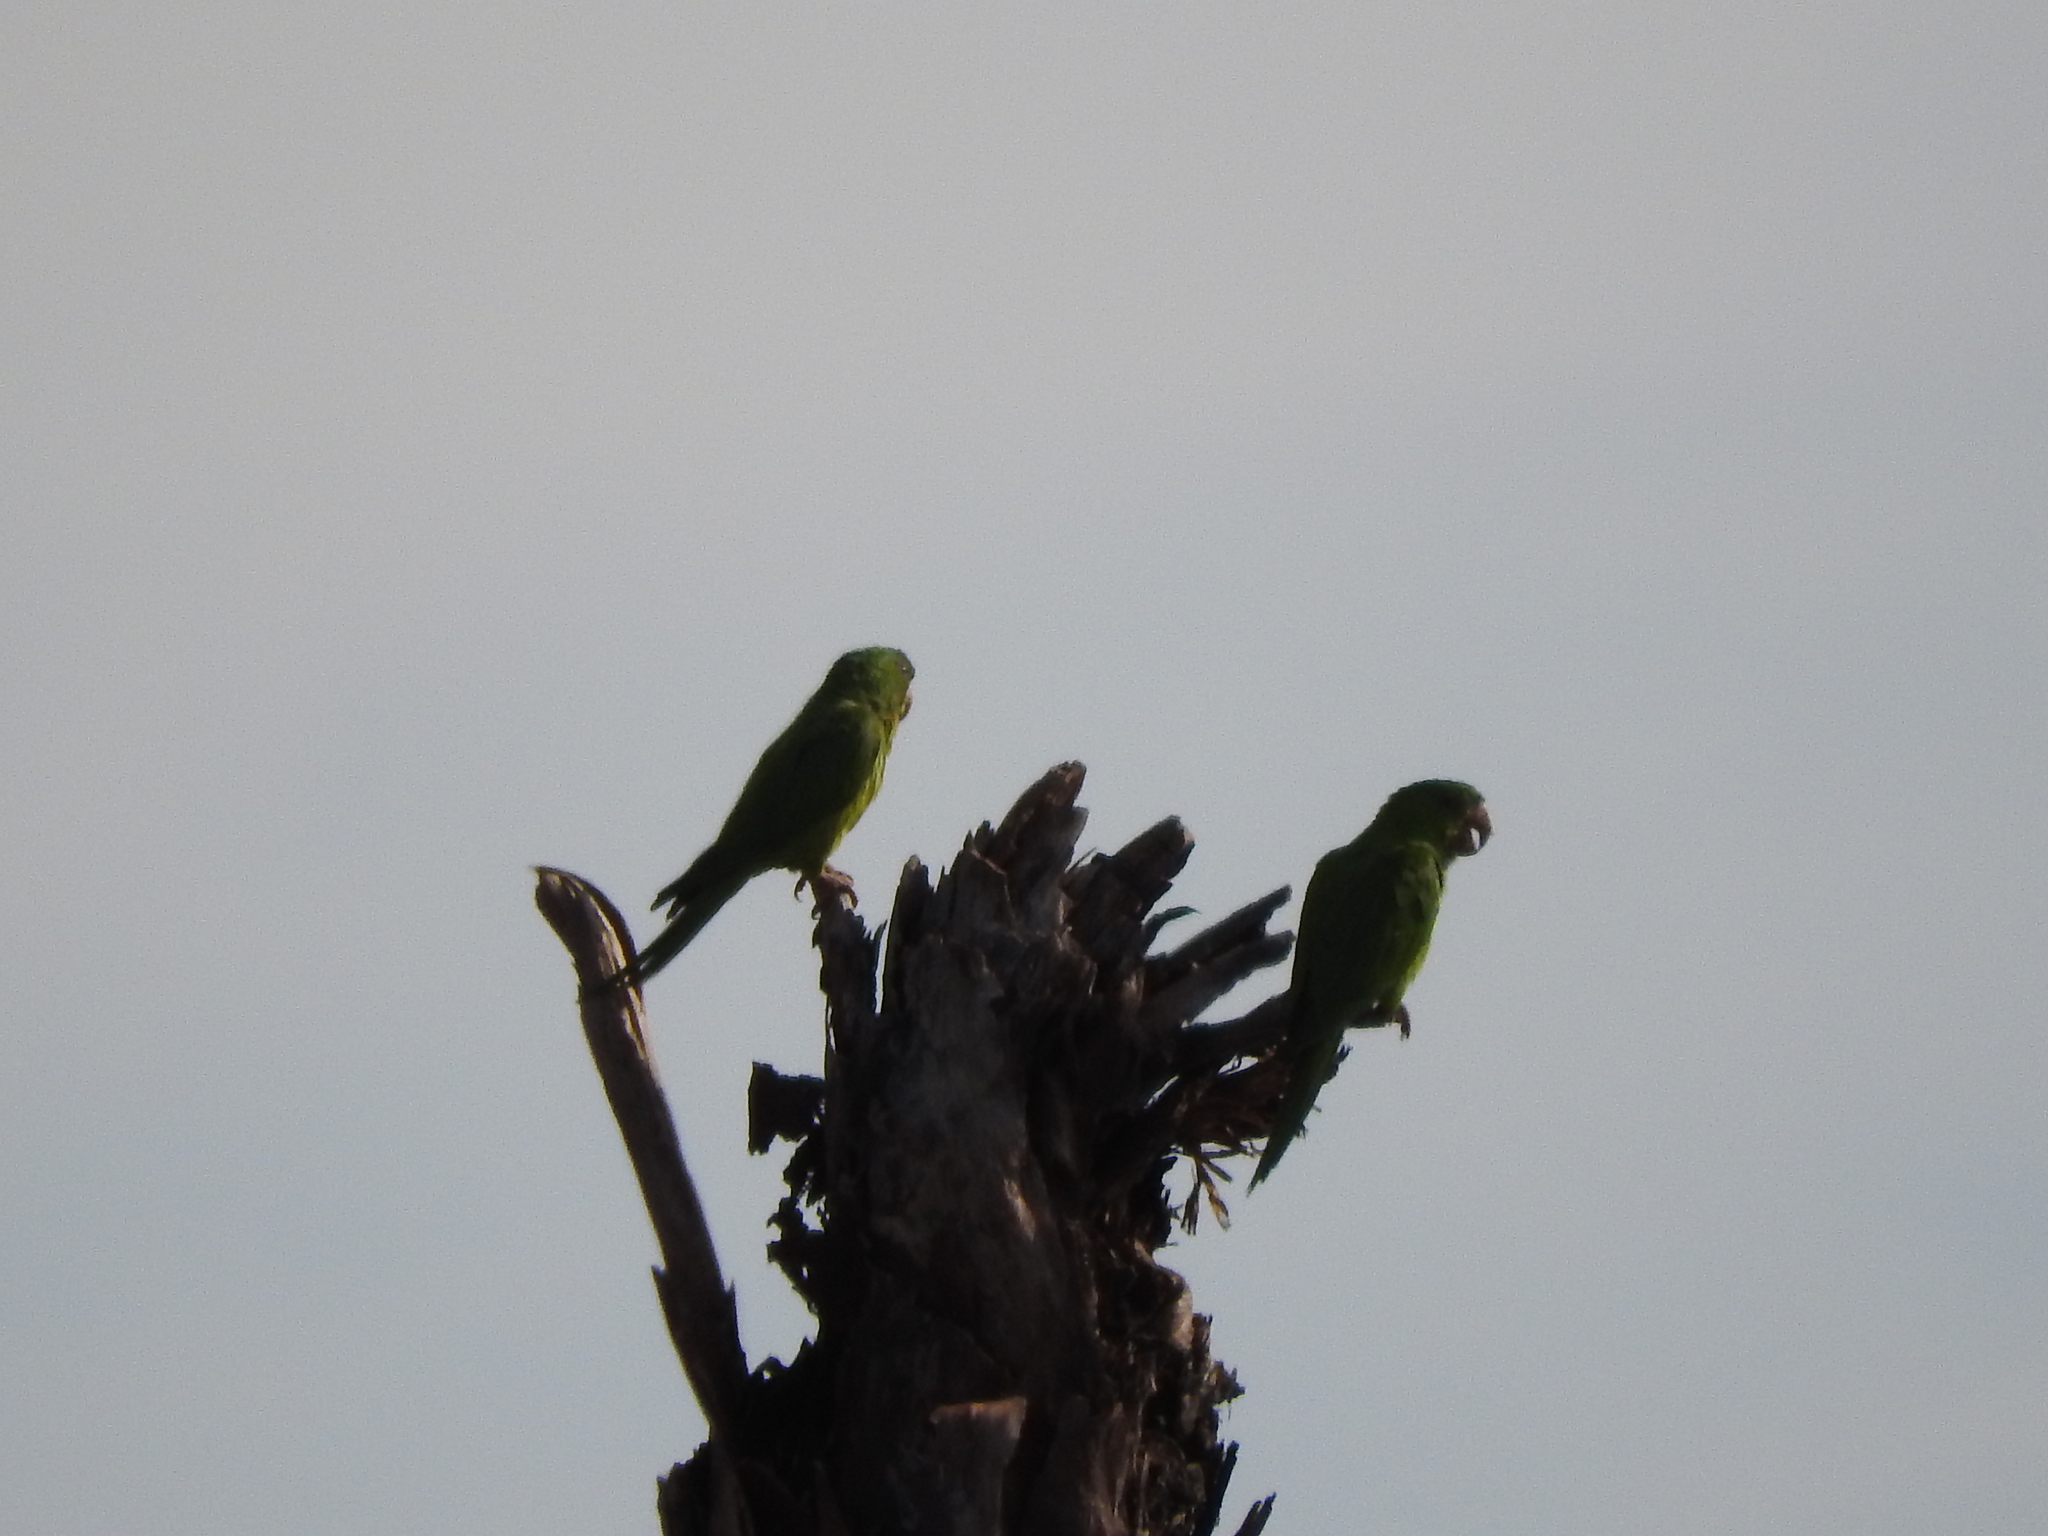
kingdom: Animalia
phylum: Chordata
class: Aves
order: Psittaciformes
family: Psittacidae
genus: Aratinga
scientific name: Aratinga holochlora
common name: Green parakeet
